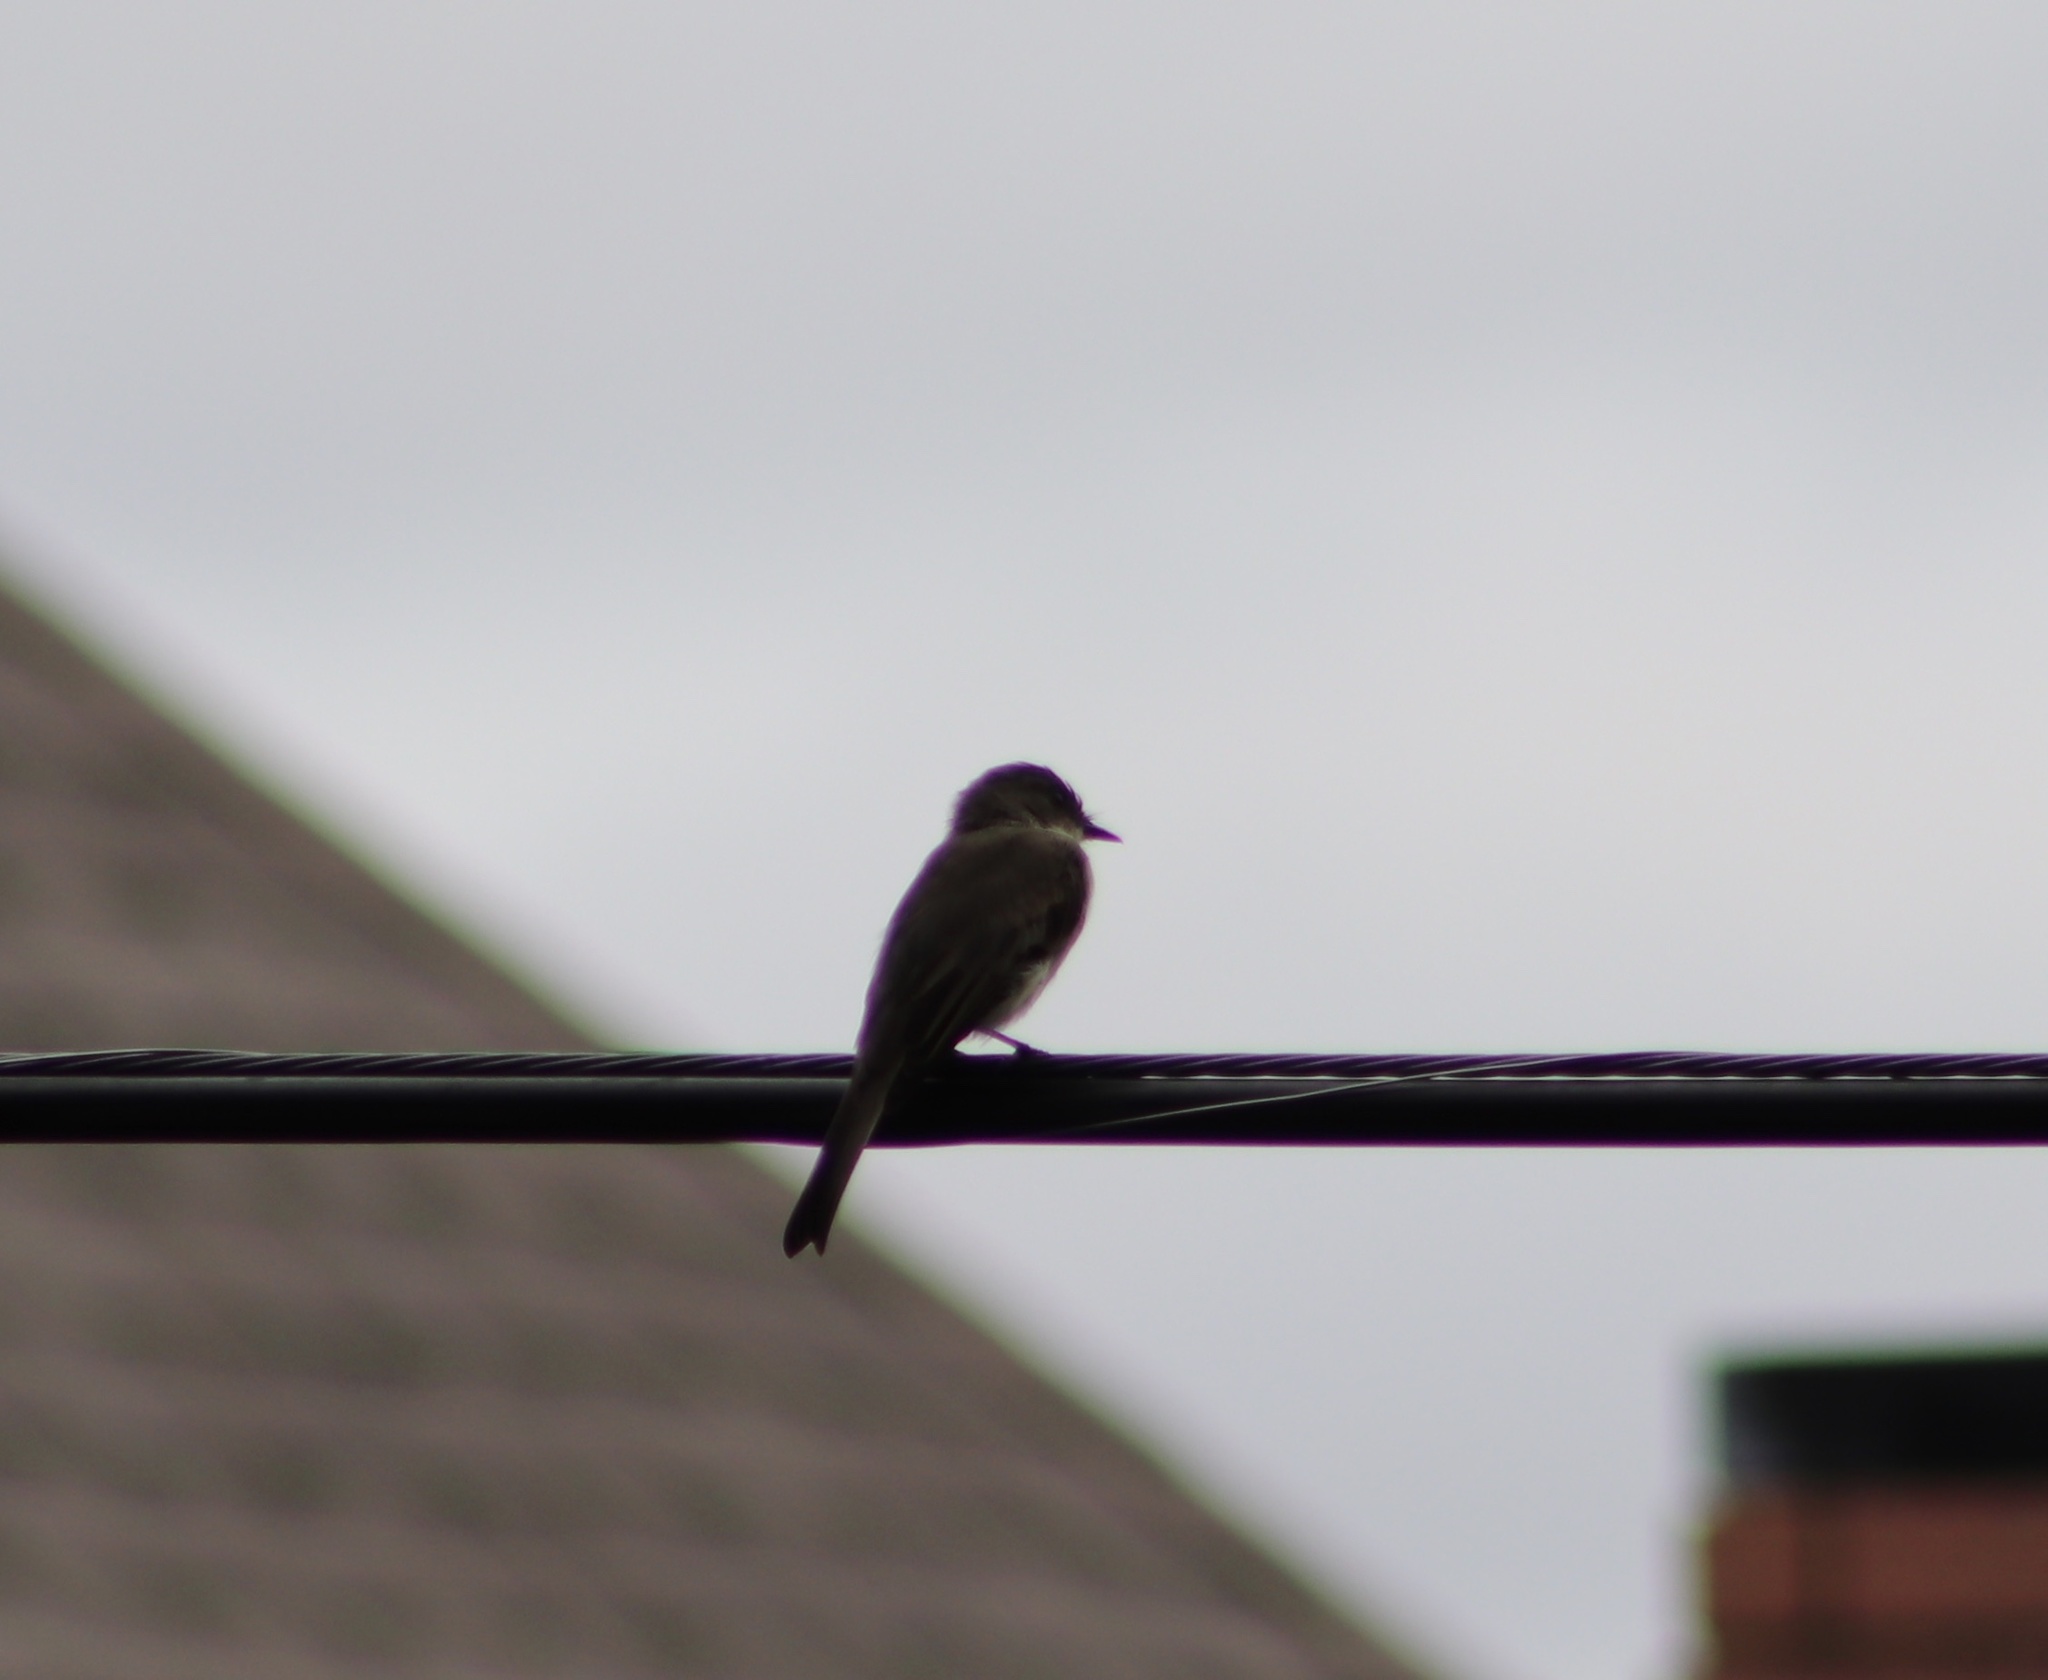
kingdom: Animalia
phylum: Chordata
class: Aves
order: Passeriformes
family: Tyrannidae
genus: Sayornis
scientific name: Sayornis phoebe
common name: Eastern phoebe
